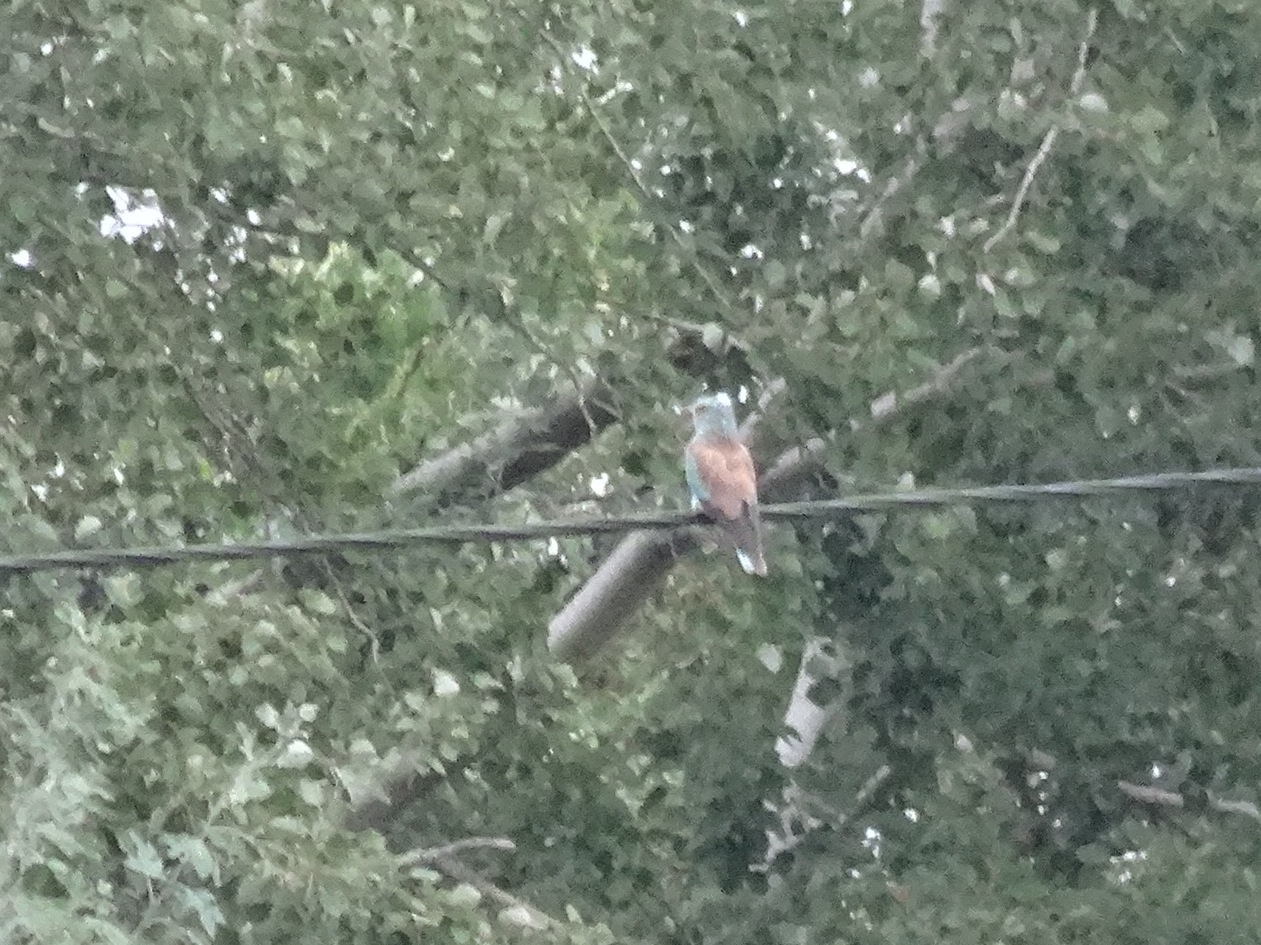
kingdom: Animalia
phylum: Chordata
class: Aves
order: Coraciiformes
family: Coraciidae
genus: Coracias
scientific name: Coracias garrulus
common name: European roller
